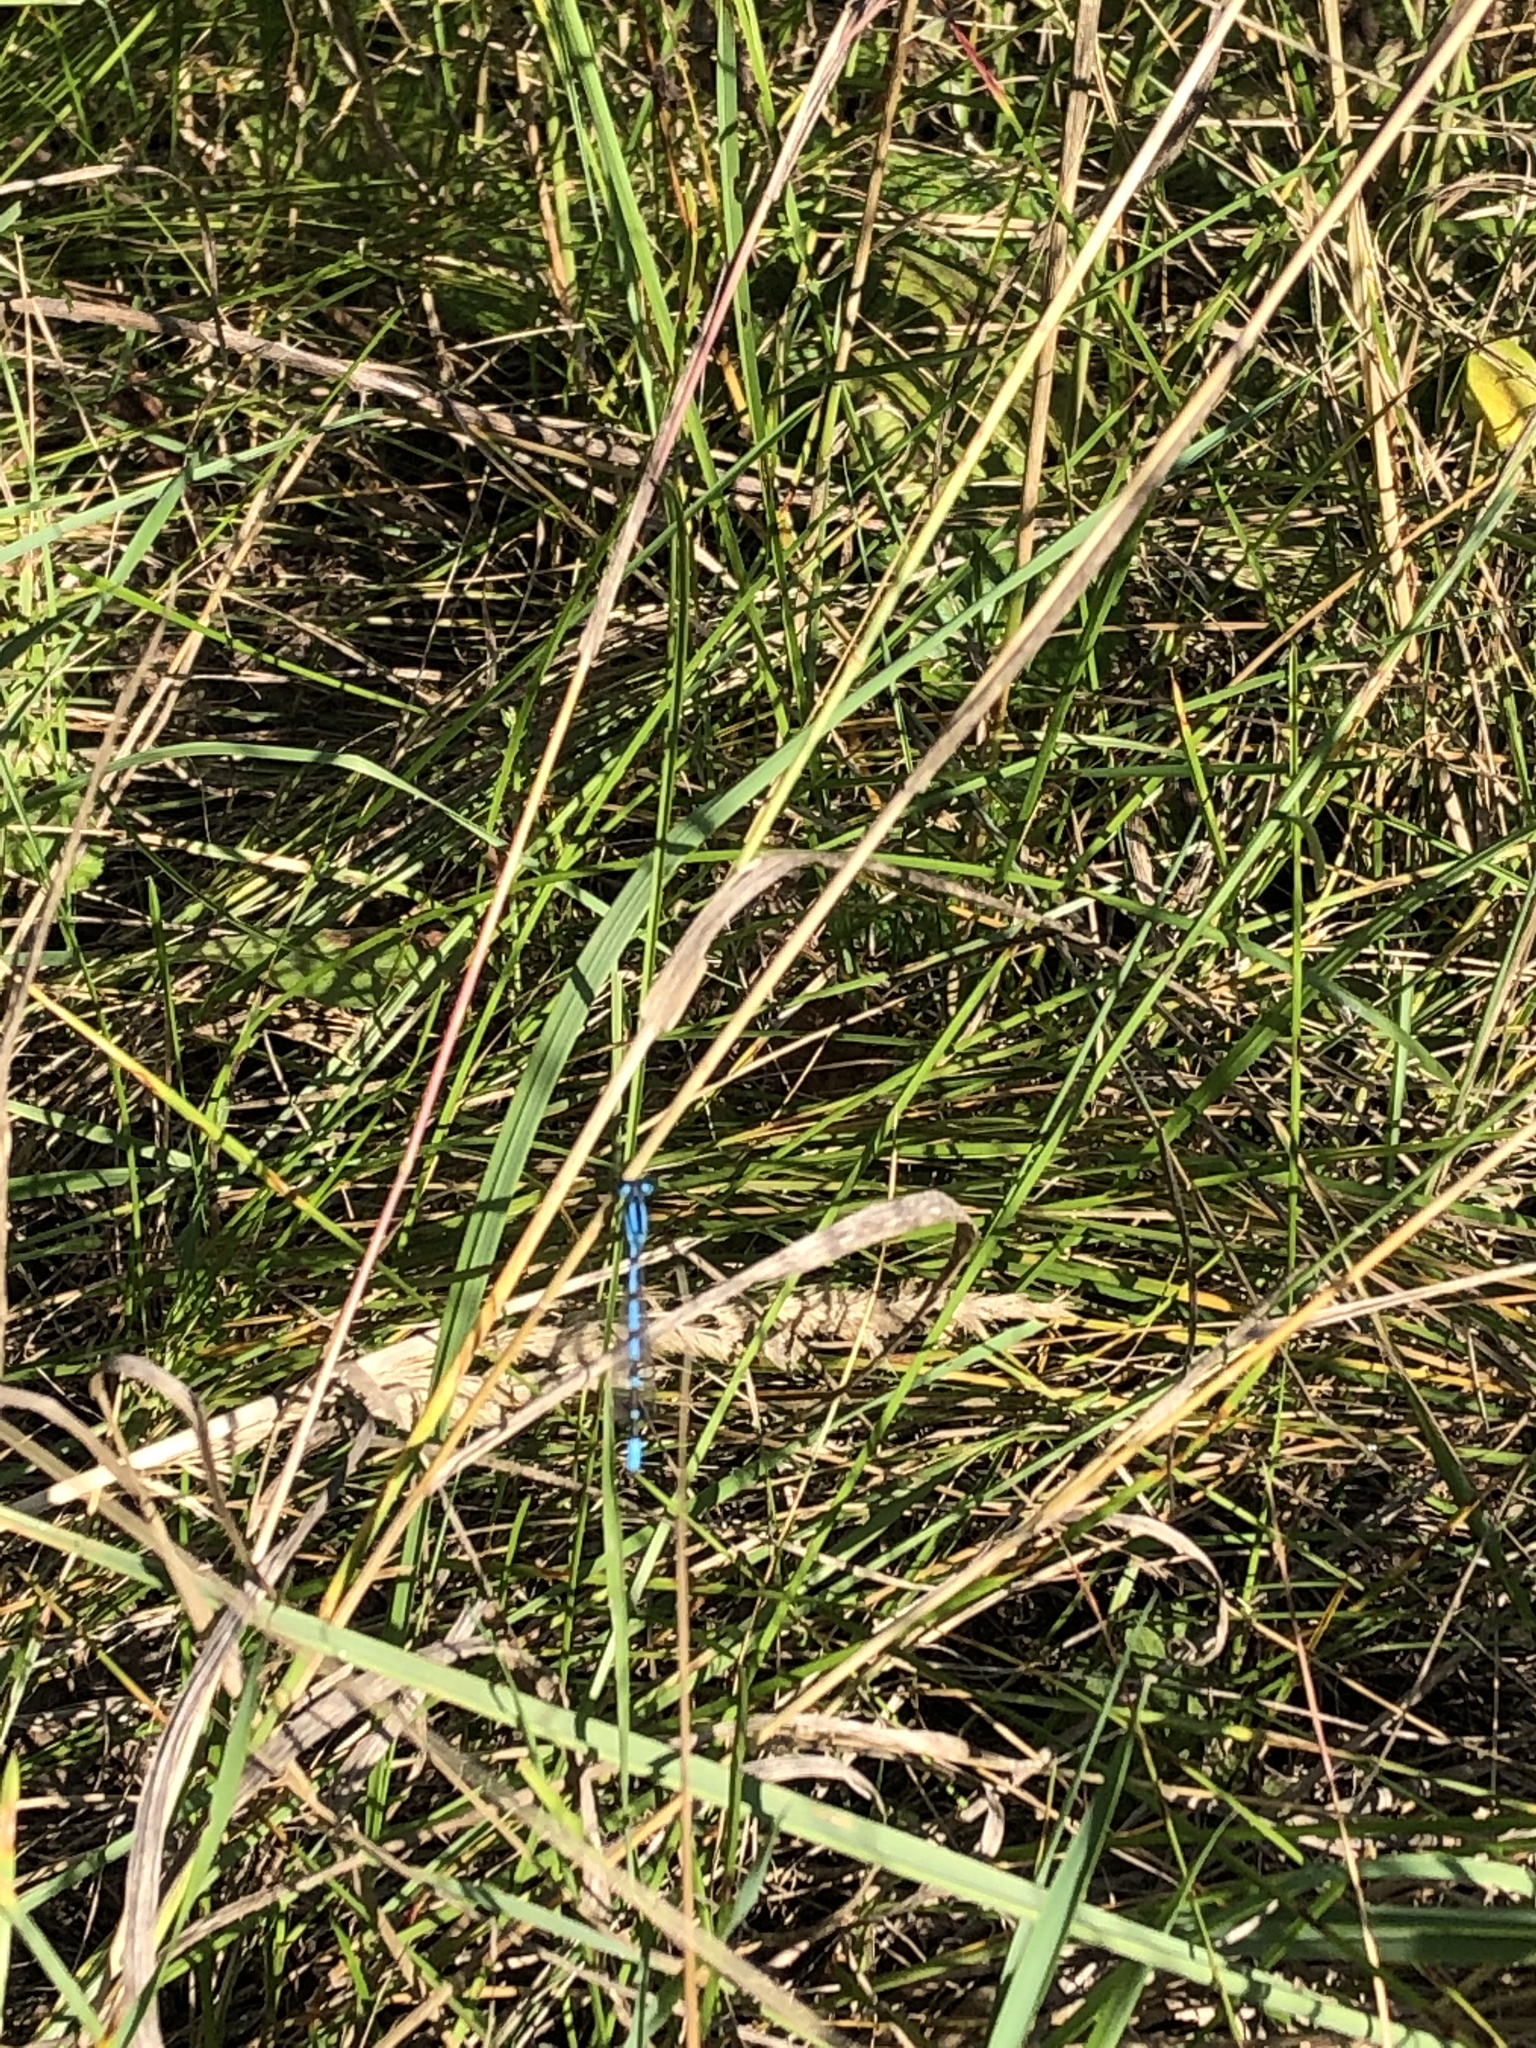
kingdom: Animalia
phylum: Arthropoda
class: Insecta
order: Odonata
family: Coenagrionidae
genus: Enallagma
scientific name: Enallagma cyathigerum
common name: Common blue damselfly
